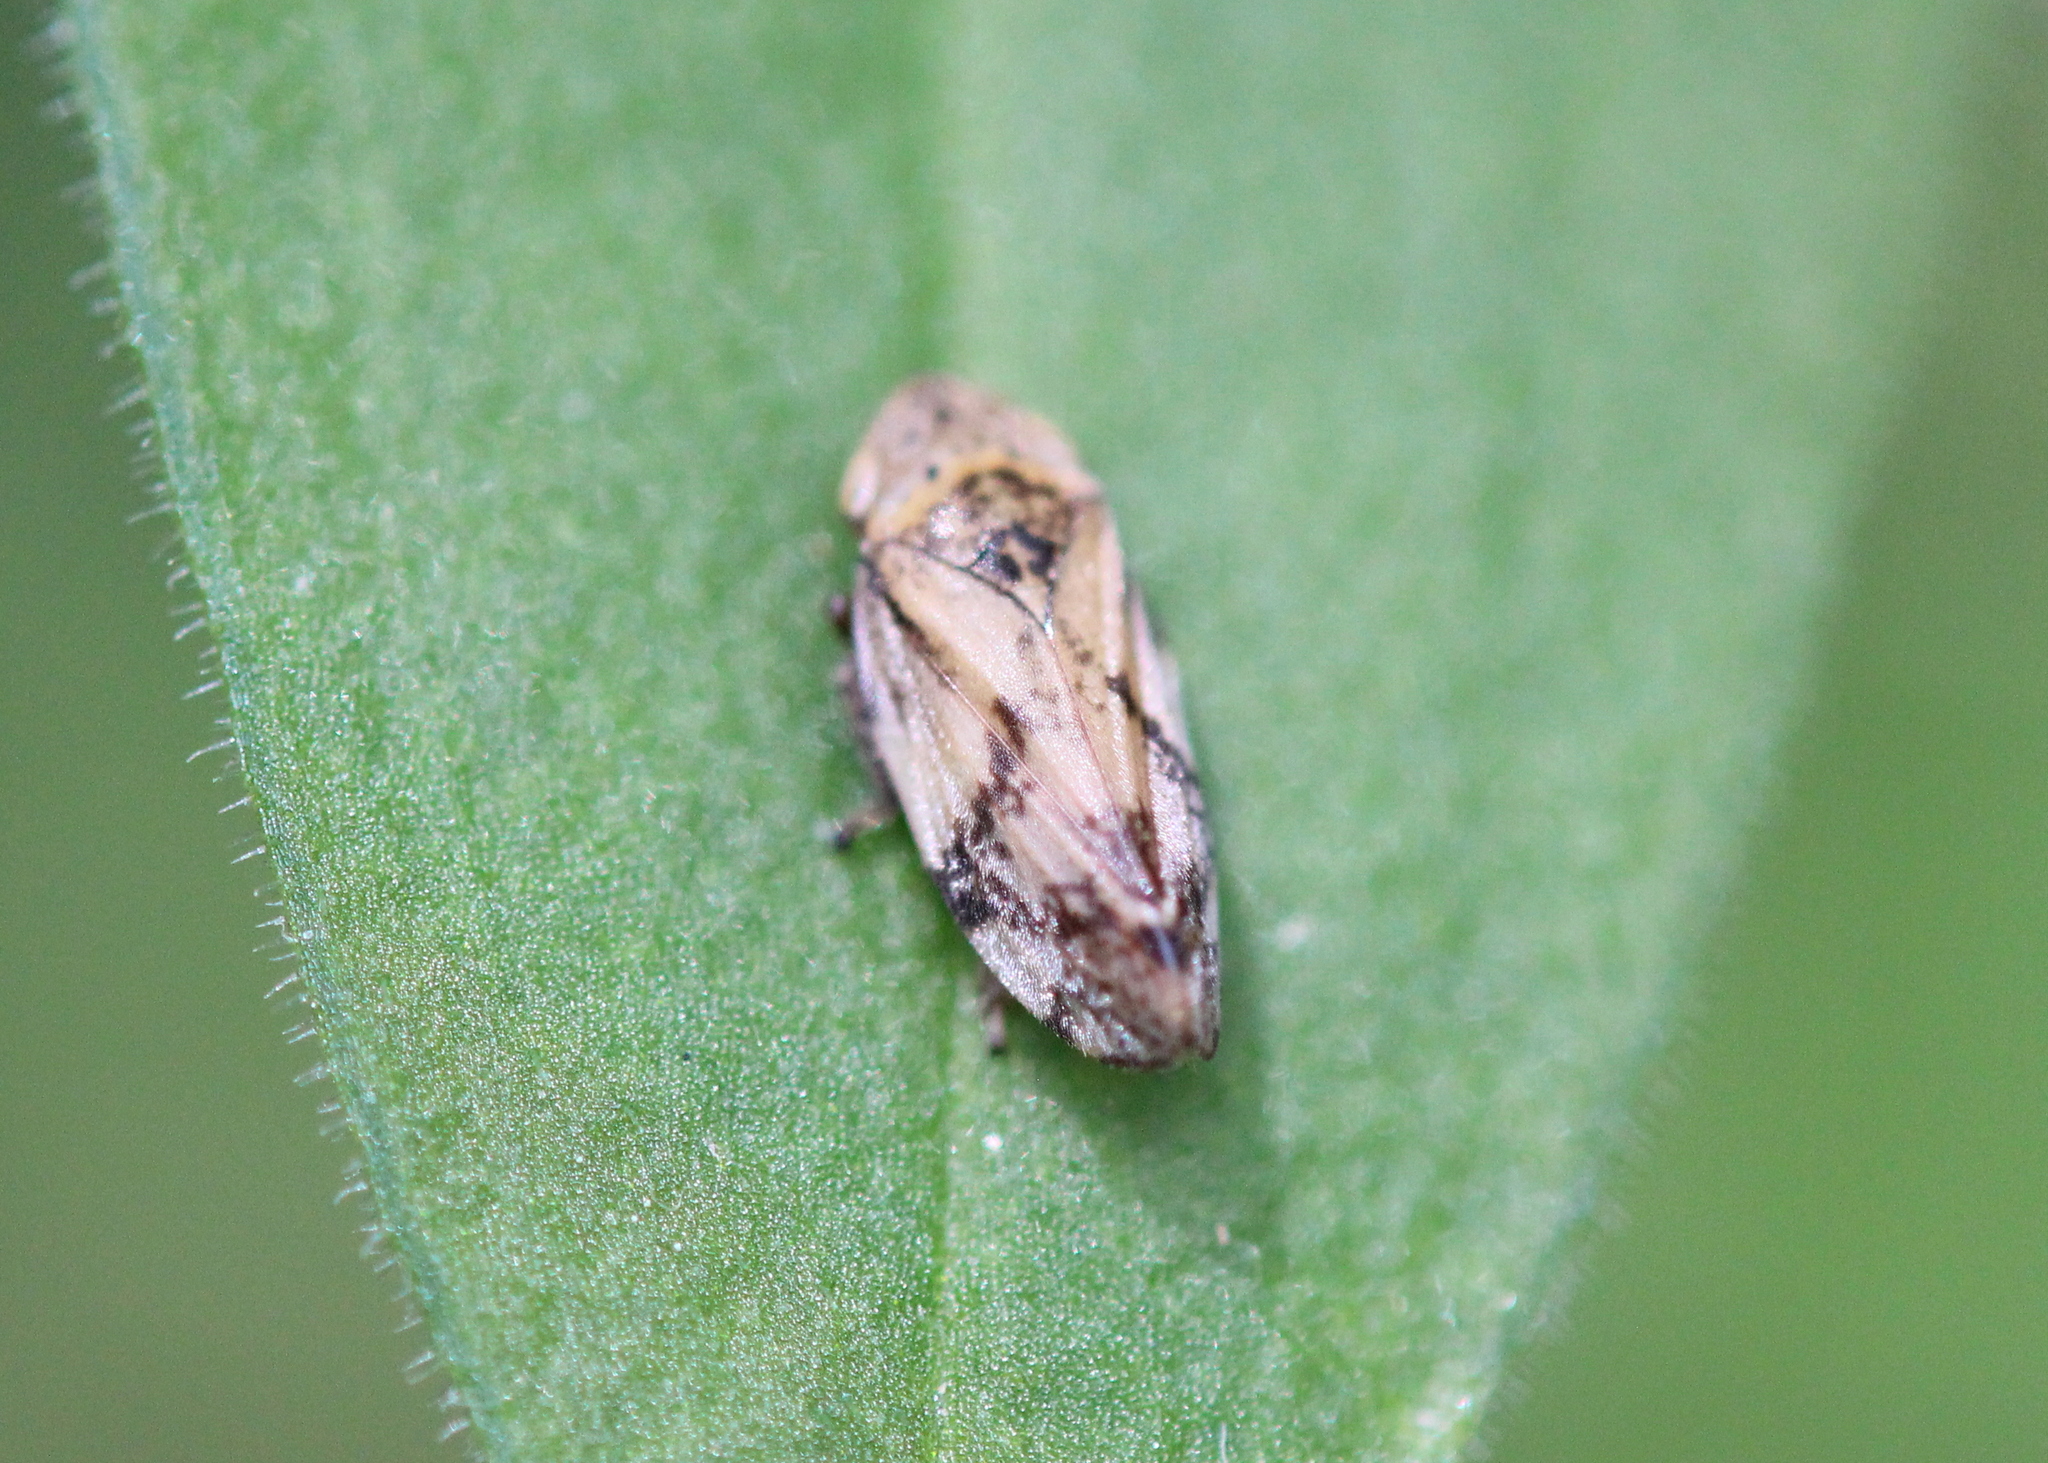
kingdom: Animalia
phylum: Arthropoda
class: Insecta
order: Hemiptera
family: Aphrophoridae
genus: Philaenus
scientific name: Philaenus spumarius
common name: Meadow spittlebug
